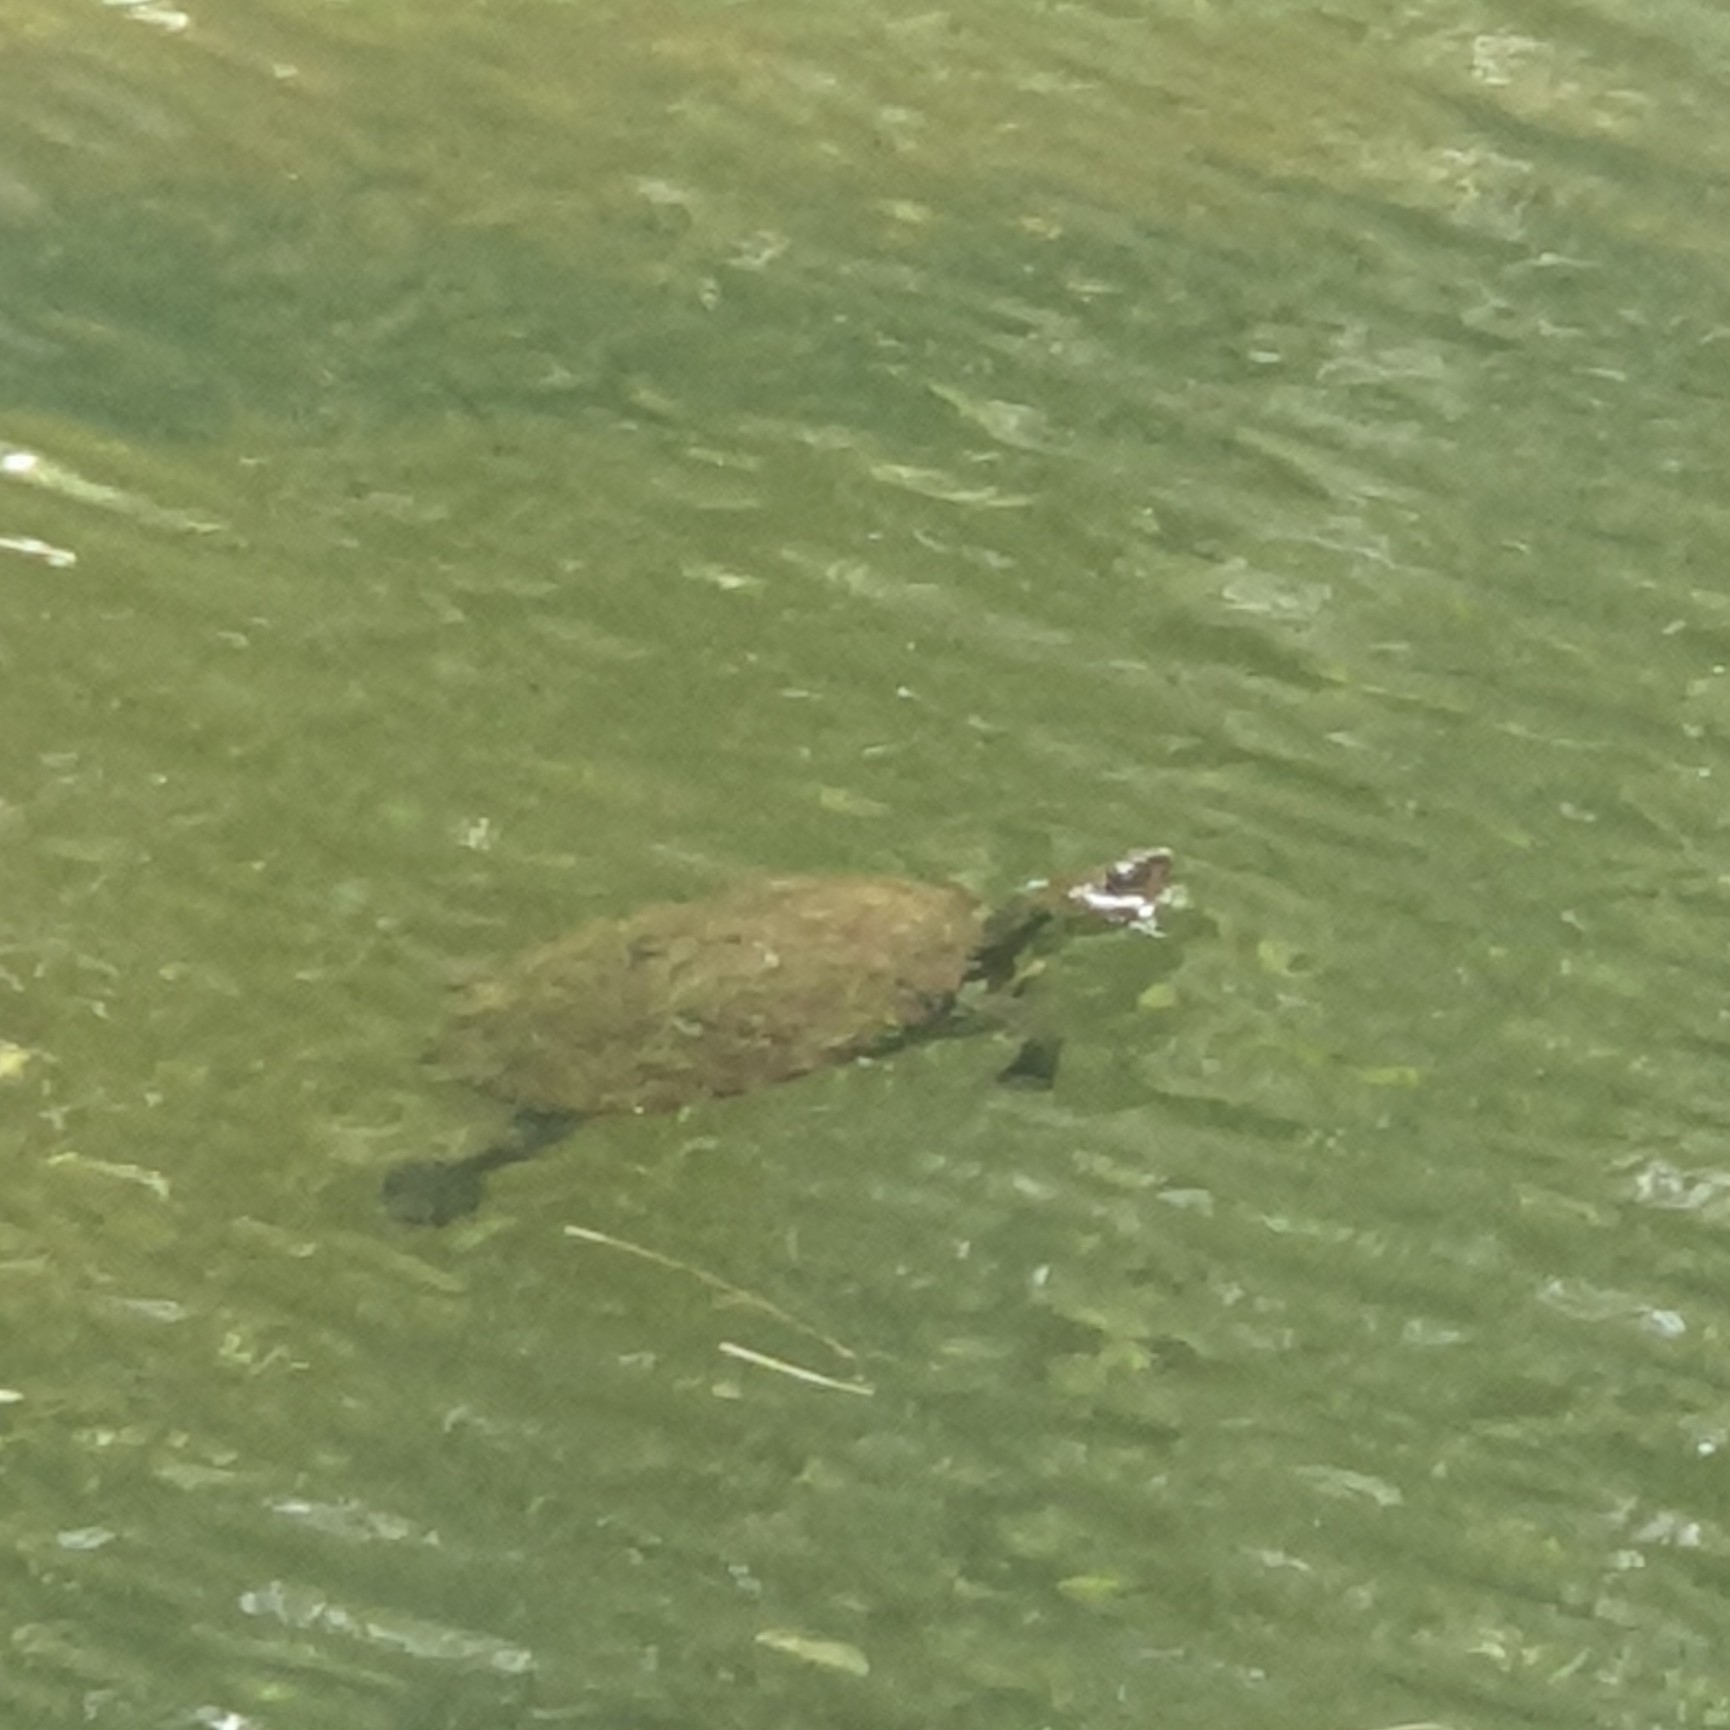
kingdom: Animalia
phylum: Chordata
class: Testudines
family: Chelidae
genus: Myuchelys
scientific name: Myuchelys latisternum
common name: Serrated snapping turtle
